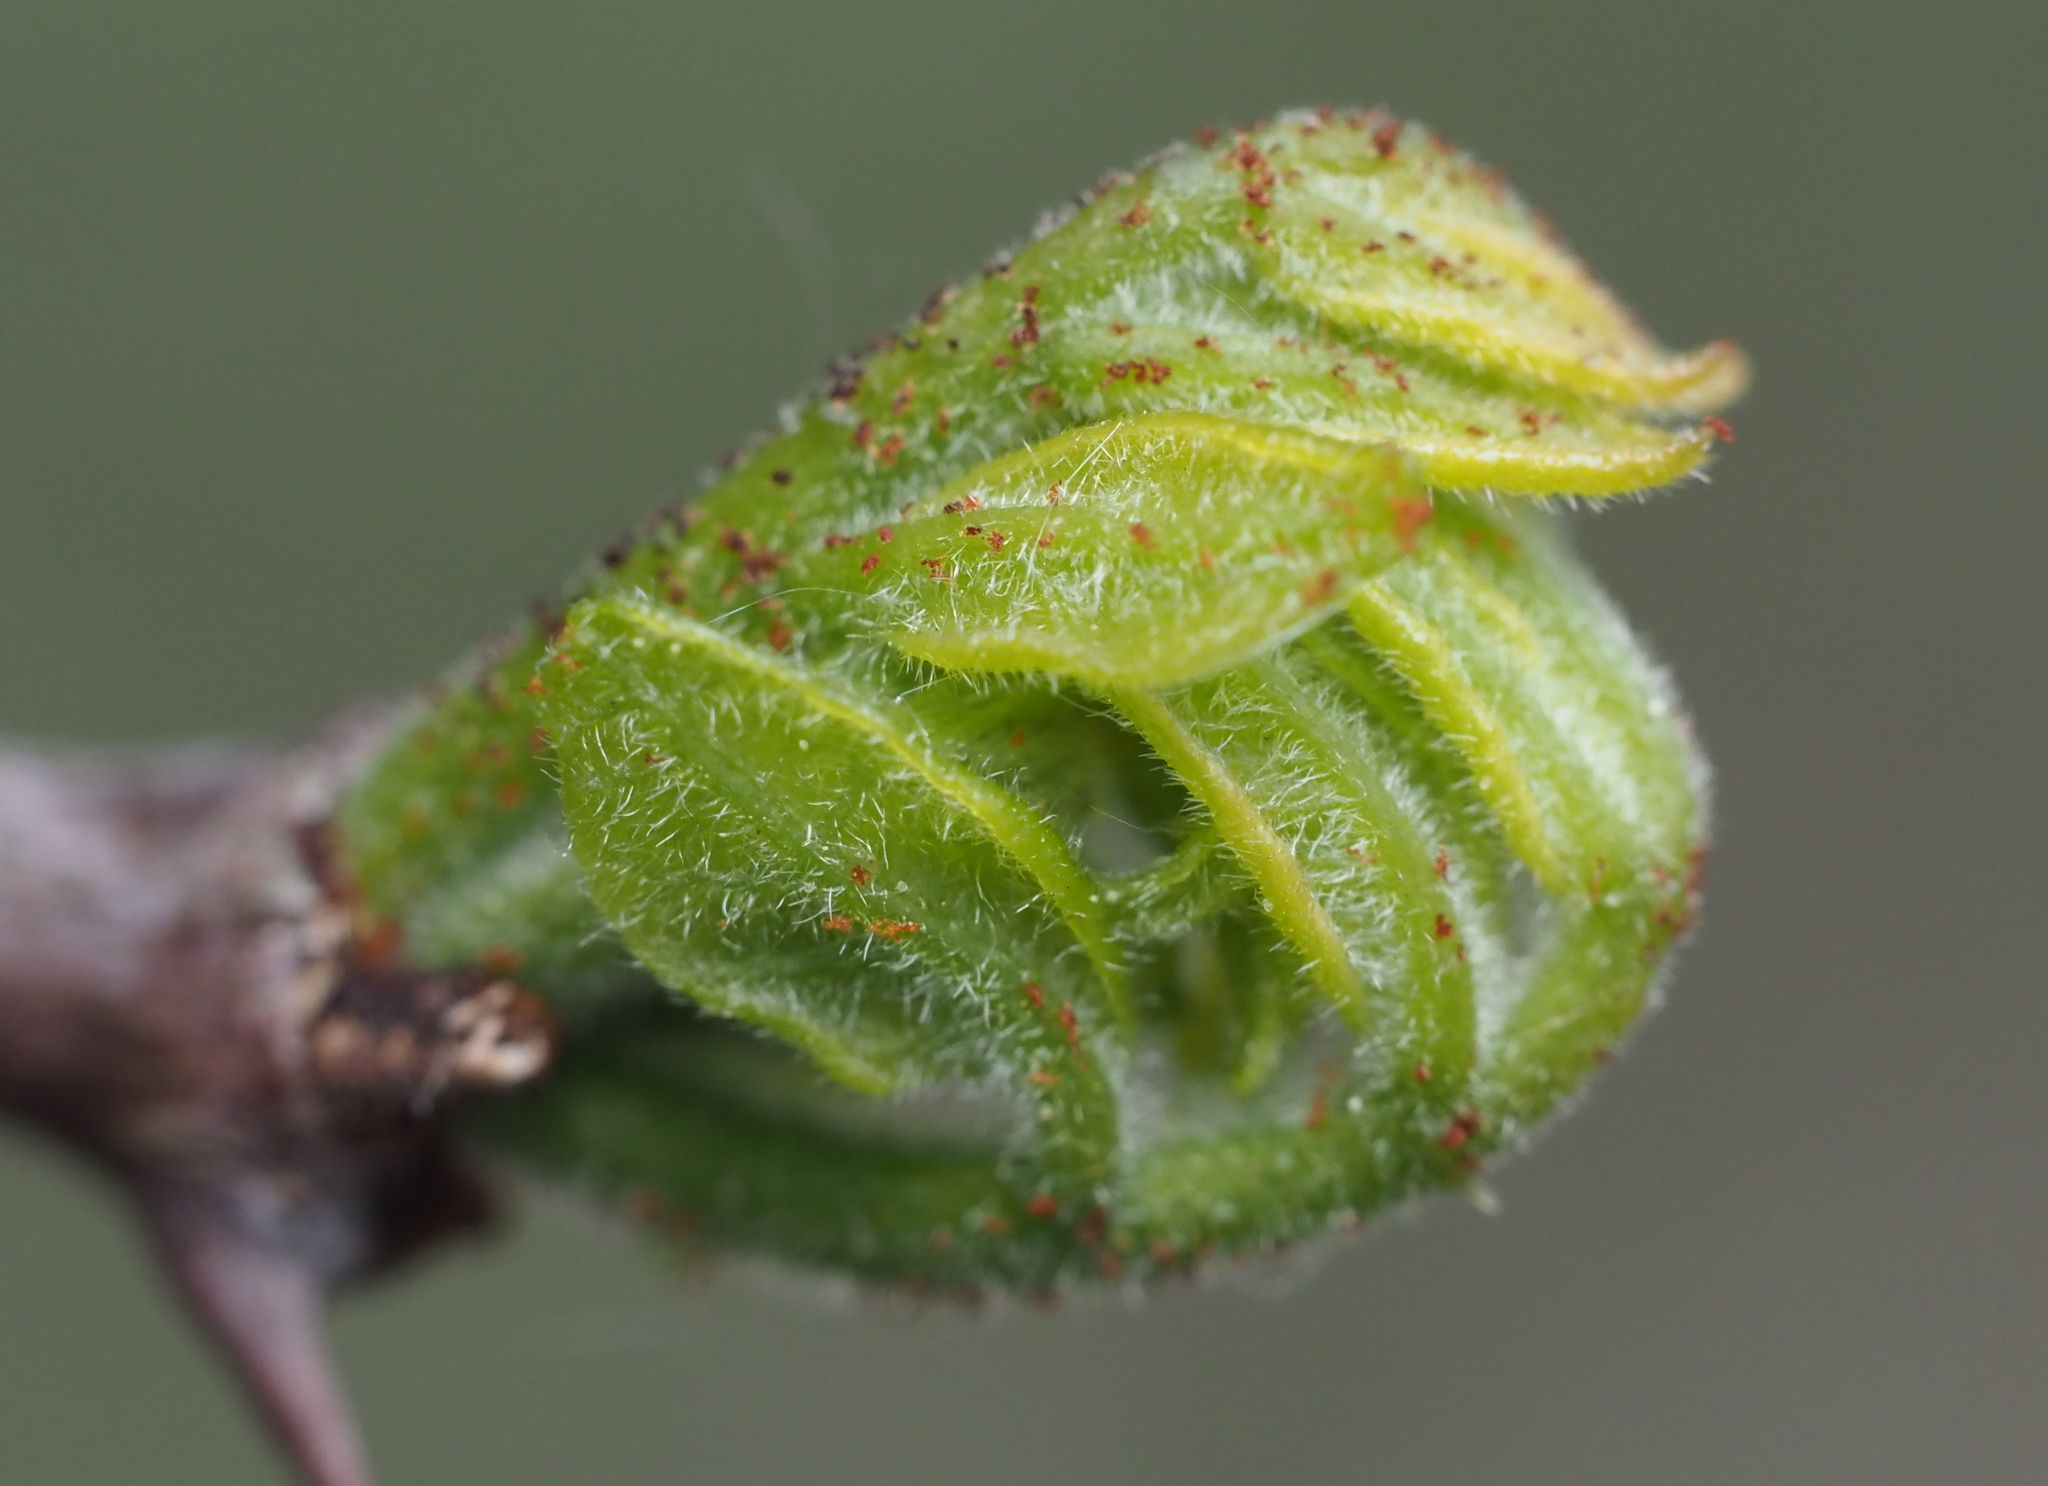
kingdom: Plantae
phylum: Tracheophyta
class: Magnoliopsida
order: Sapindales
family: Rutaceae
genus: Zanthoxylum
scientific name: Zanthoxylum americanum
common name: Northern prickly-ash
